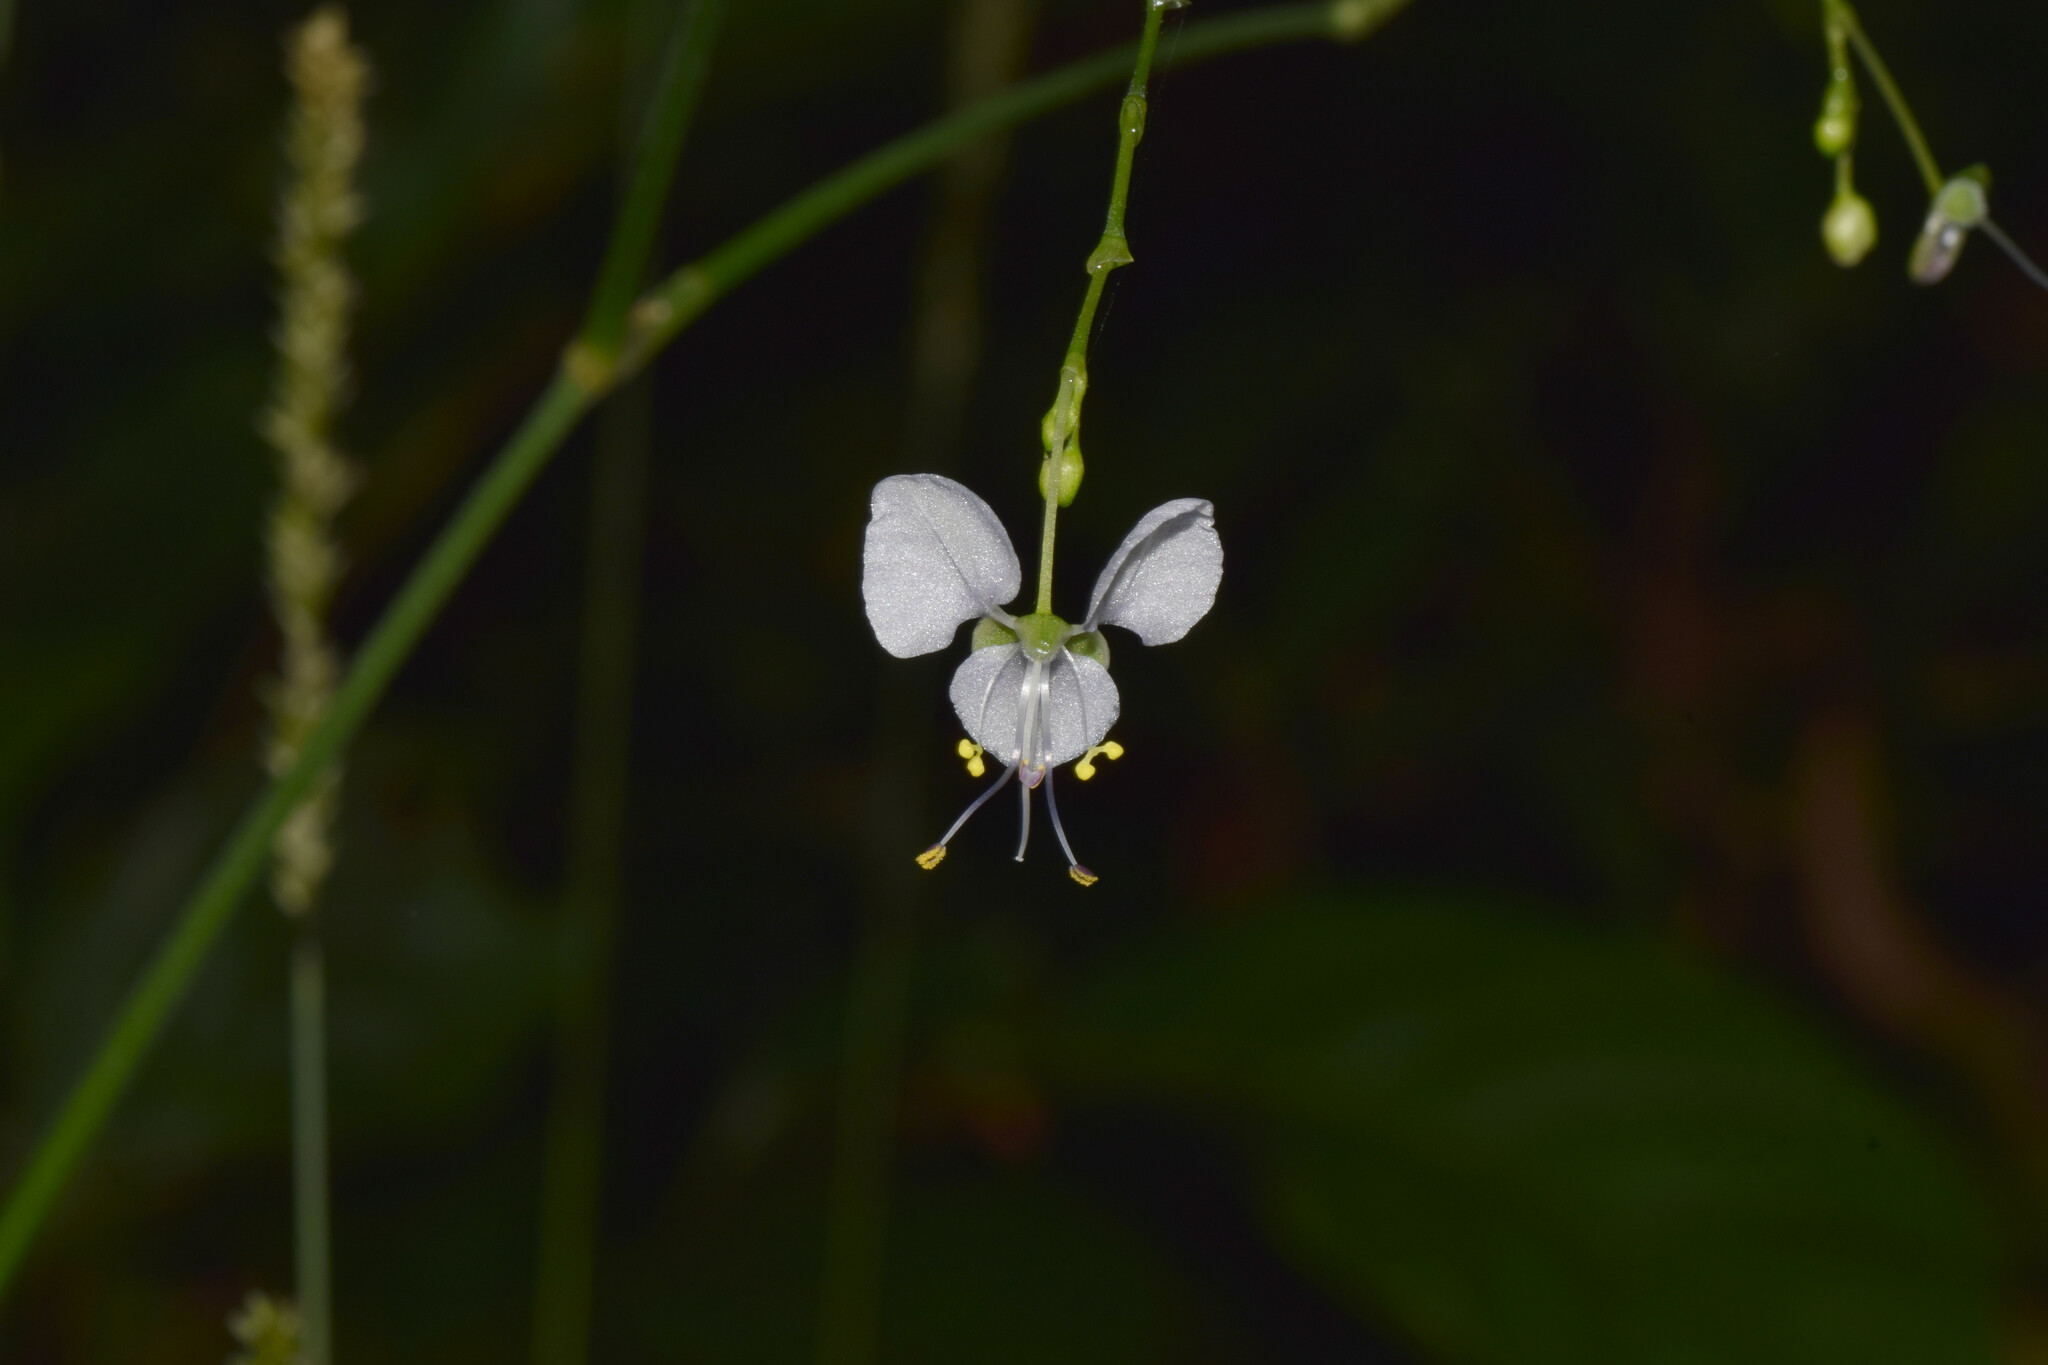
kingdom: Plantae
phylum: Tracheophyta
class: Liliopsida
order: Commelinales
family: Commelinaceae
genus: Rhopalephora
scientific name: Rhopalephora scaberrima
